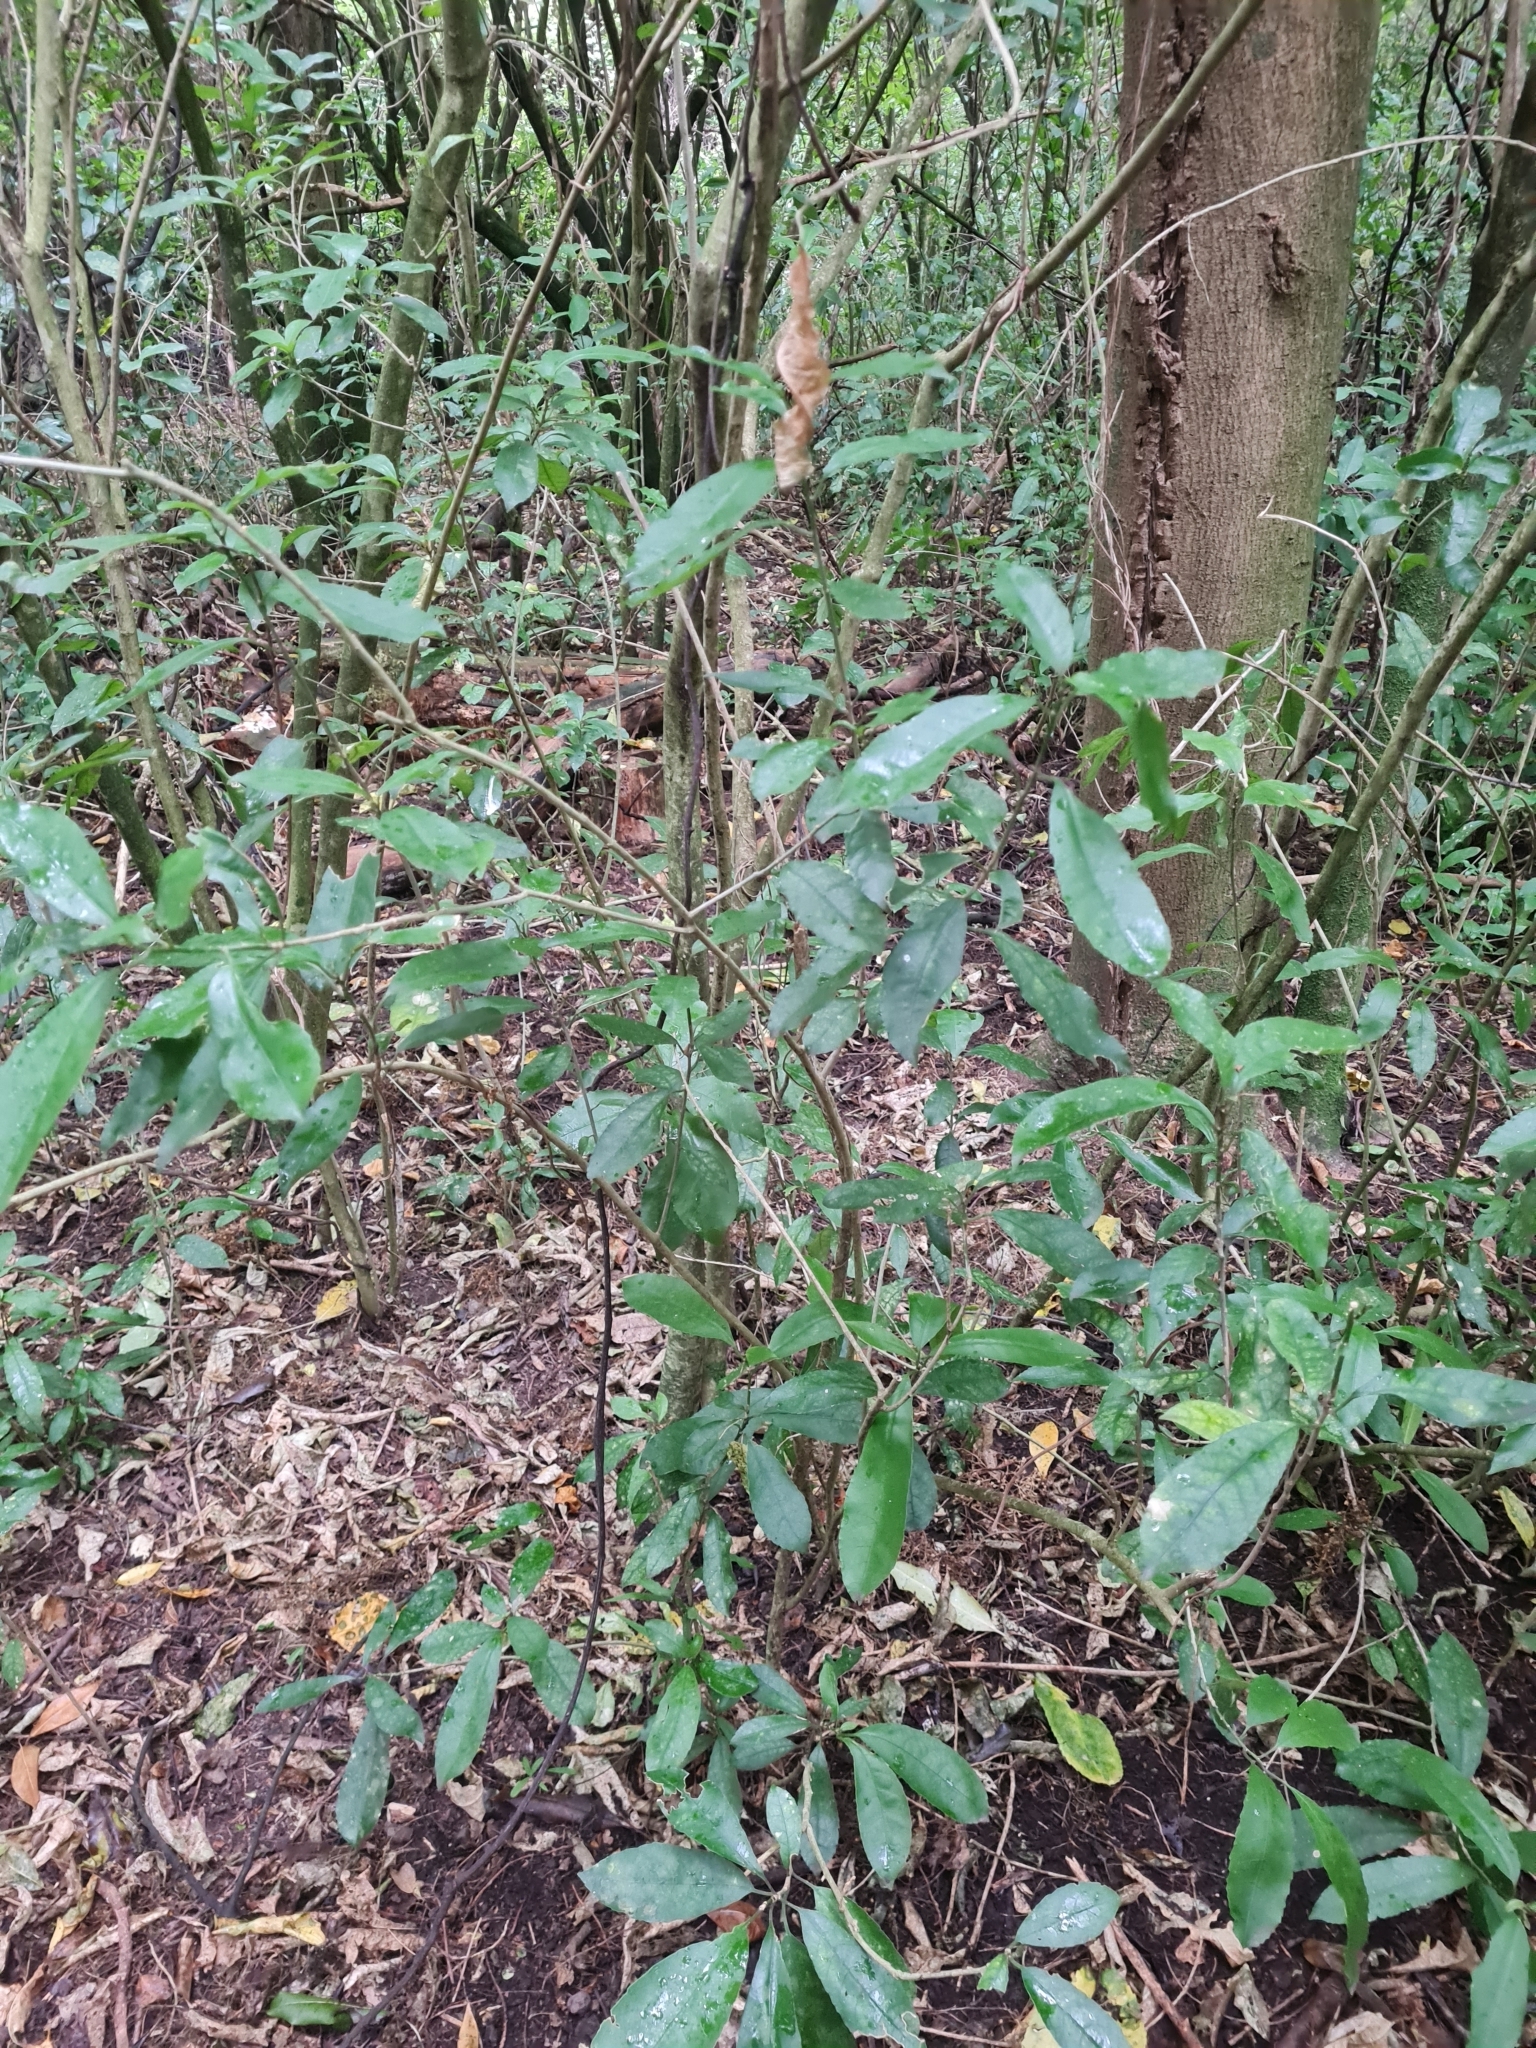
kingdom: Plantae
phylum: Tracheophyta
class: Magnoliopsida
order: Malpighiales
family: Violaceae
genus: Melicytus
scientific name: Melicytus ramiflorus
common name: Mahoe
